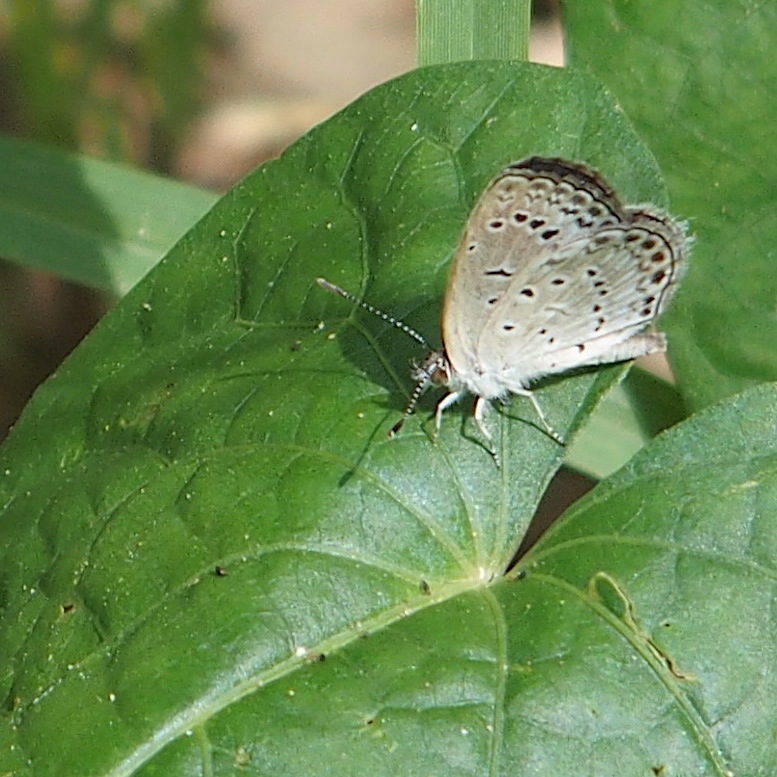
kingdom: Animalia
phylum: Arthropoda
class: Insecta
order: Lepidoptera
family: Lycaenidae
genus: Pseudozizeeria
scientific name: Pseudozizeeria maha
